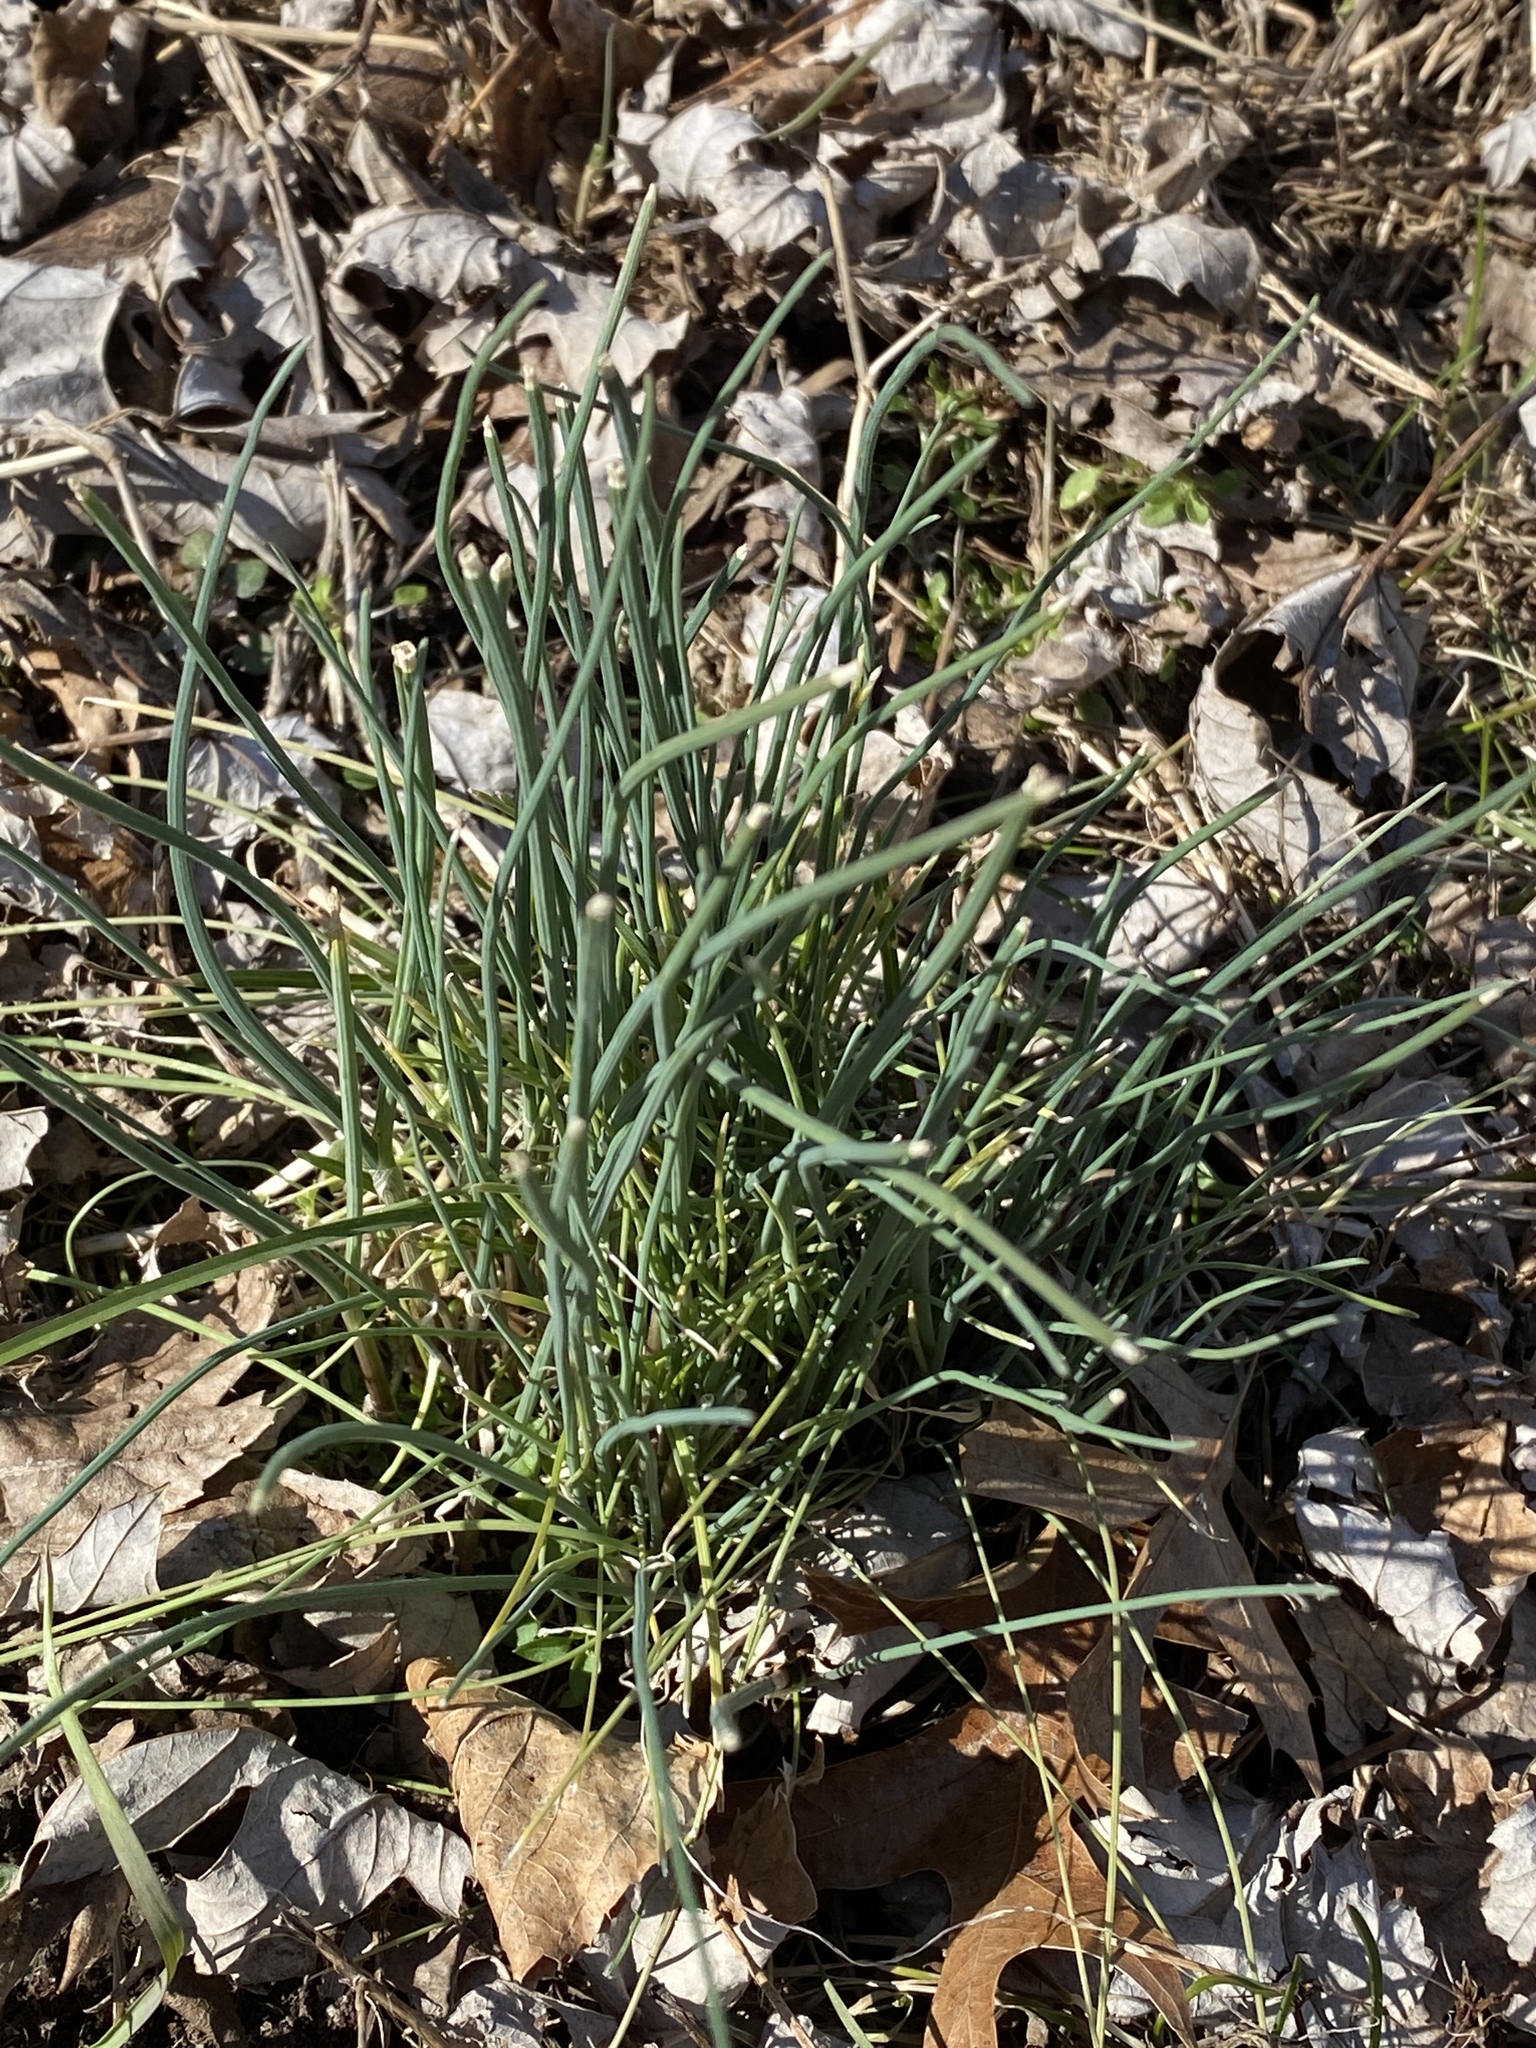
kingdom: Plantae
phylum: Tracheophyta
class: Liliopsida
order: Asparagales
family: Amaryllidaceae
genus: Allium
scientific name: Allium vineale
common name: Crow garlic
